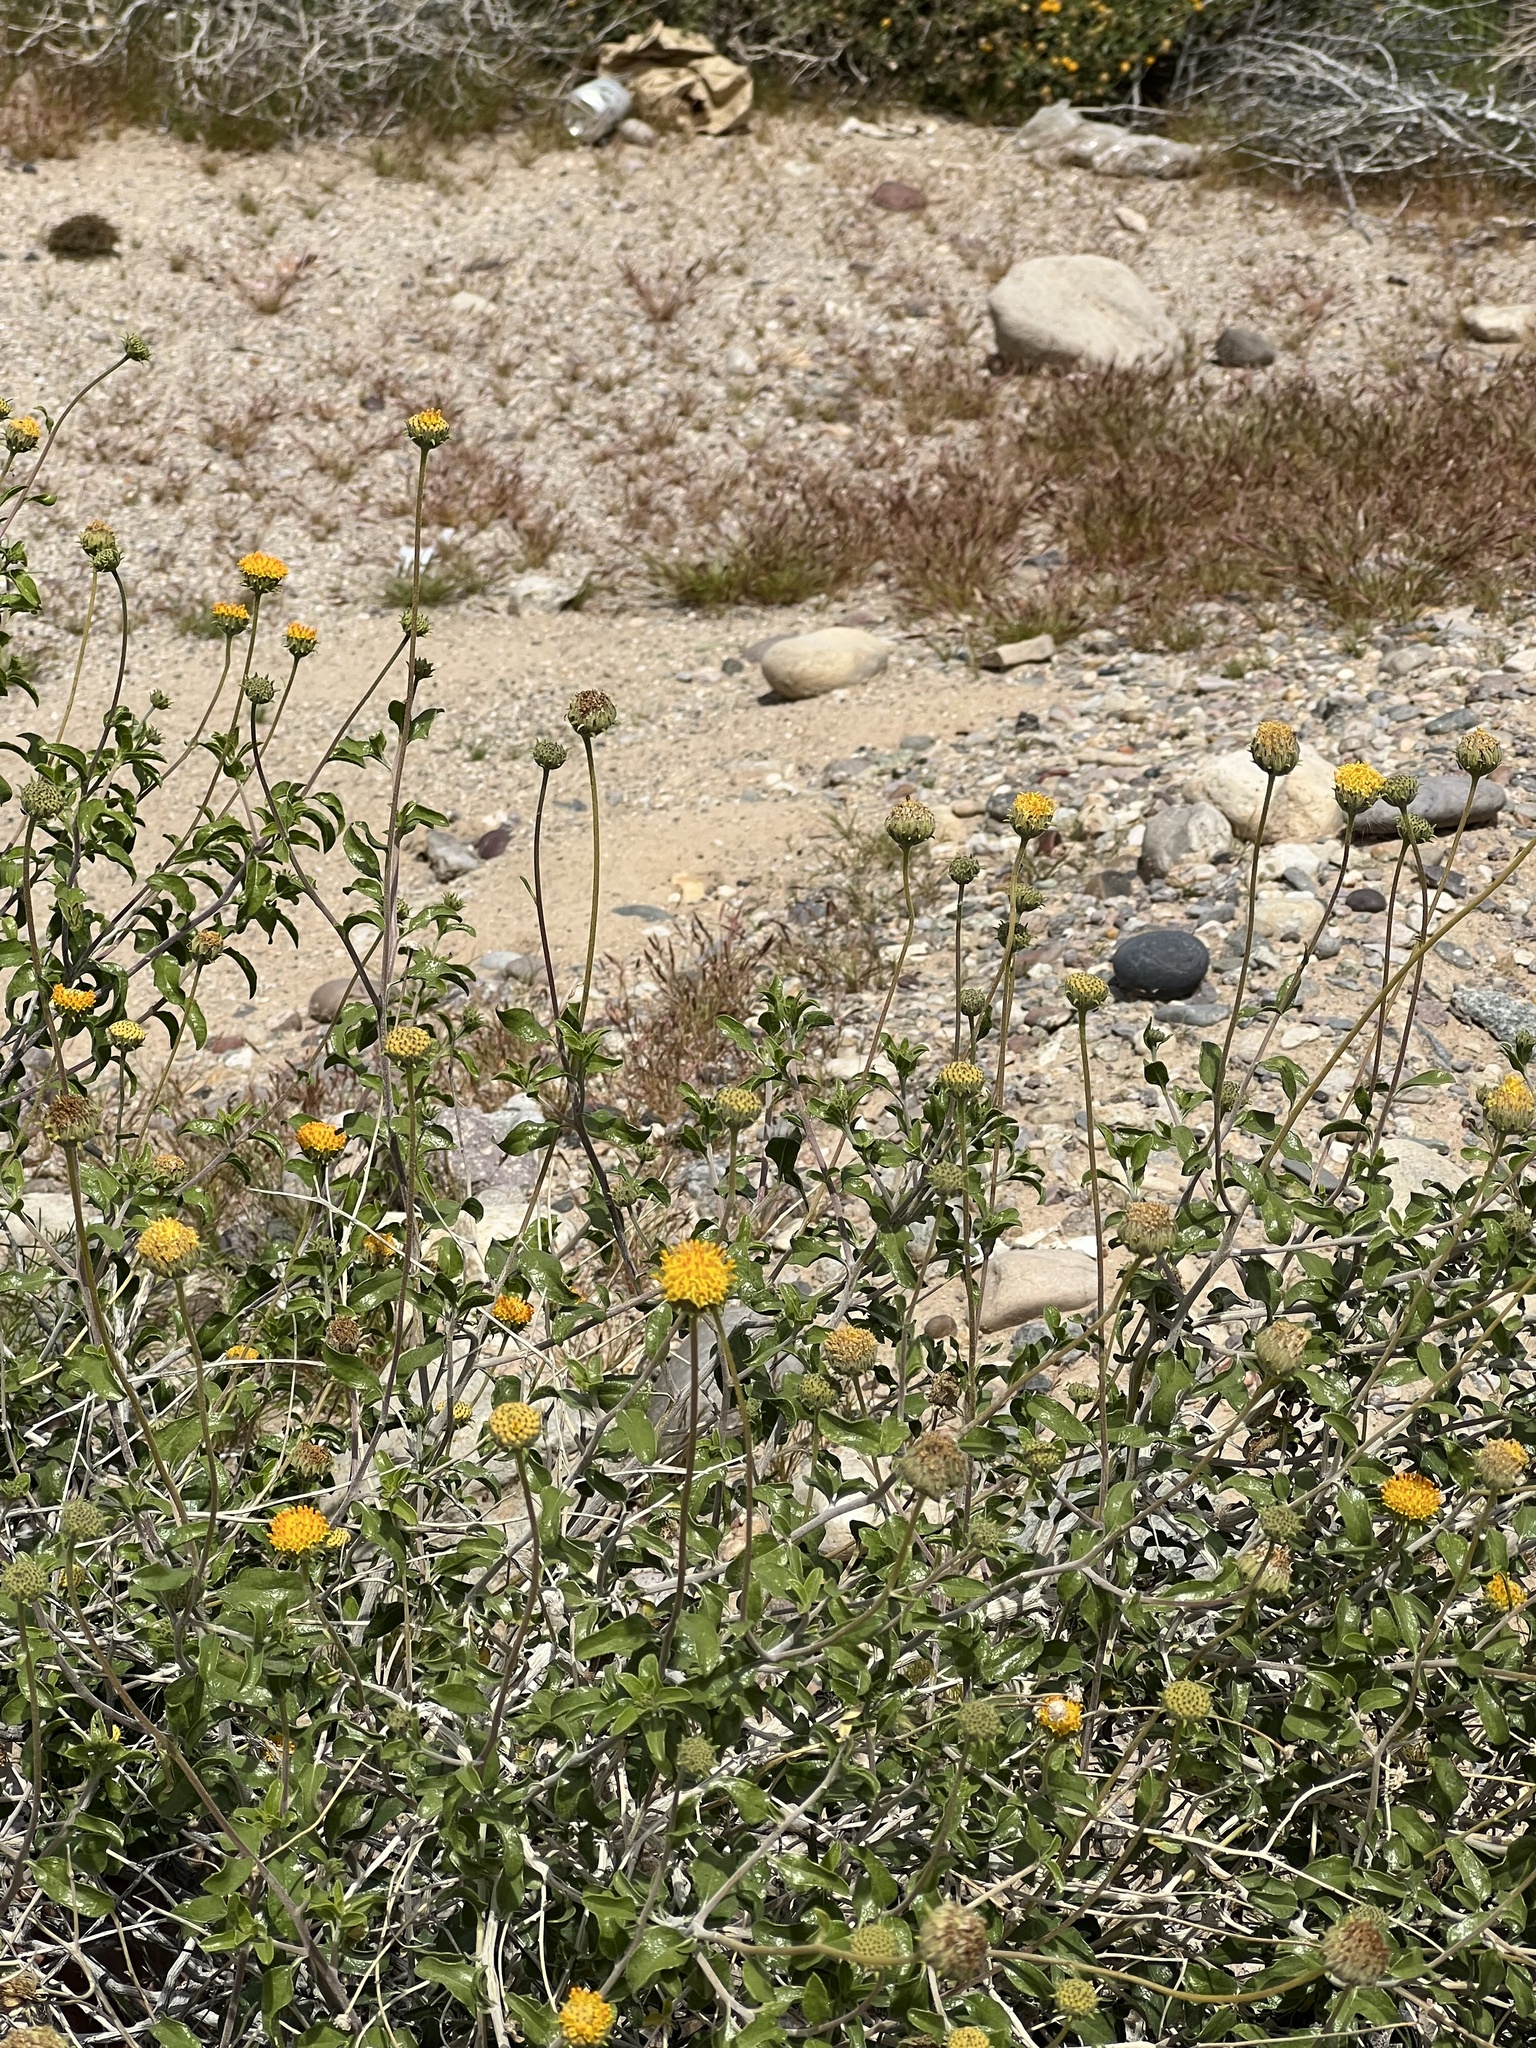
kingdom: Plantae
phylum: Tracheophyta
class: Magnoliopsida
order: Asterales
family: Asteraceae
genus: Encelia
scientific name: Encelia frutescens
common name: Bush encelia
